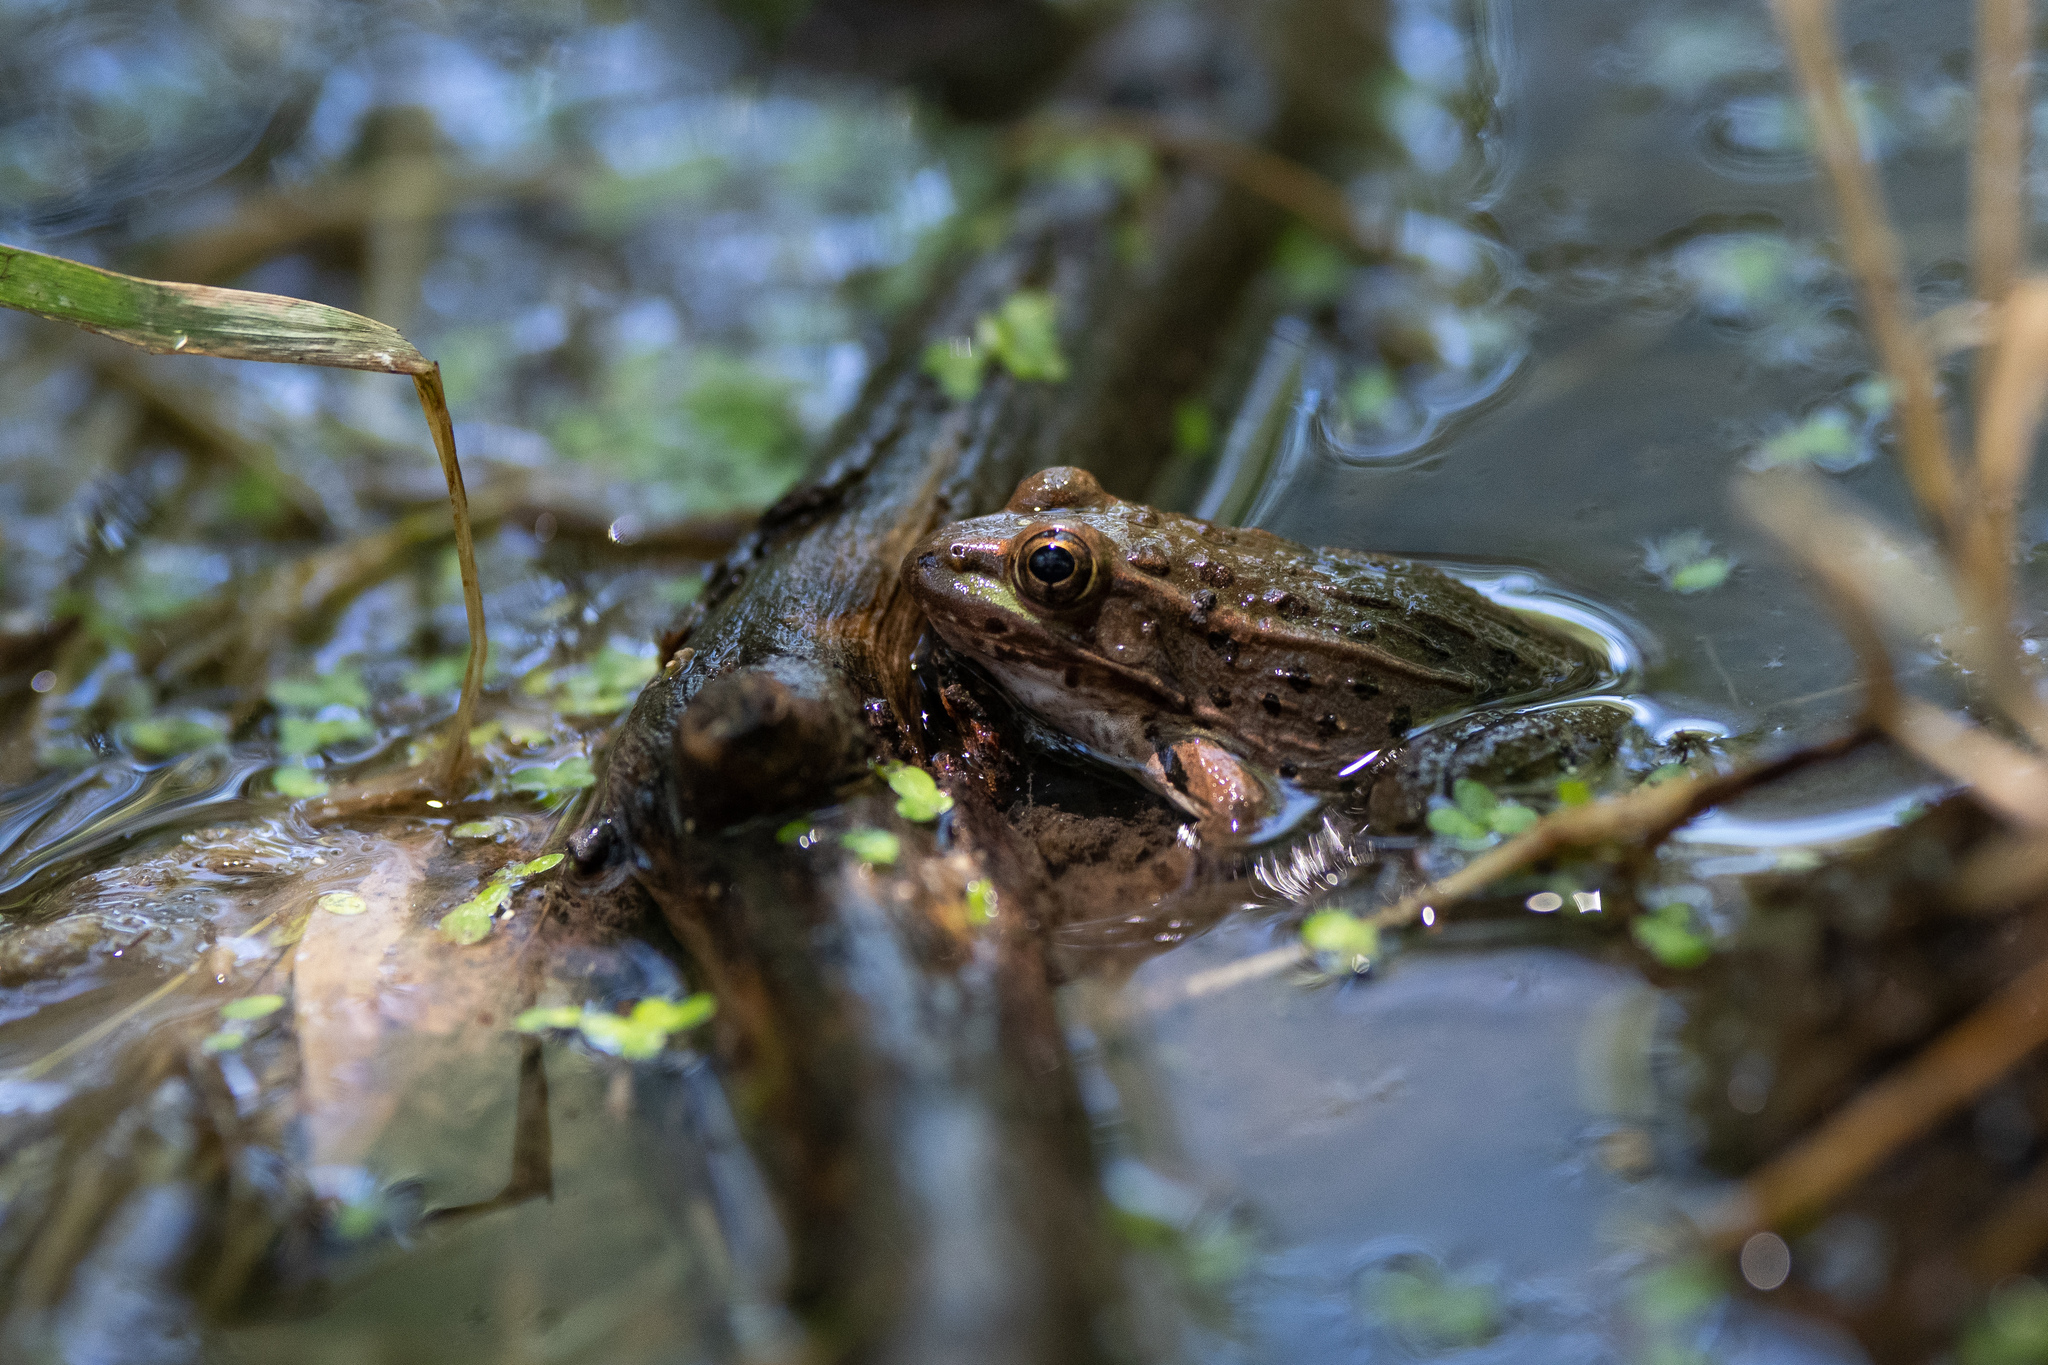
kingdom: Animalia
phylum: Chordata
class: Amphibia
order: Anura
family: Ranidae
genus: Lithobates
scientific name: Lithobates yavapaiensis
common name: Lowland leopard frog
